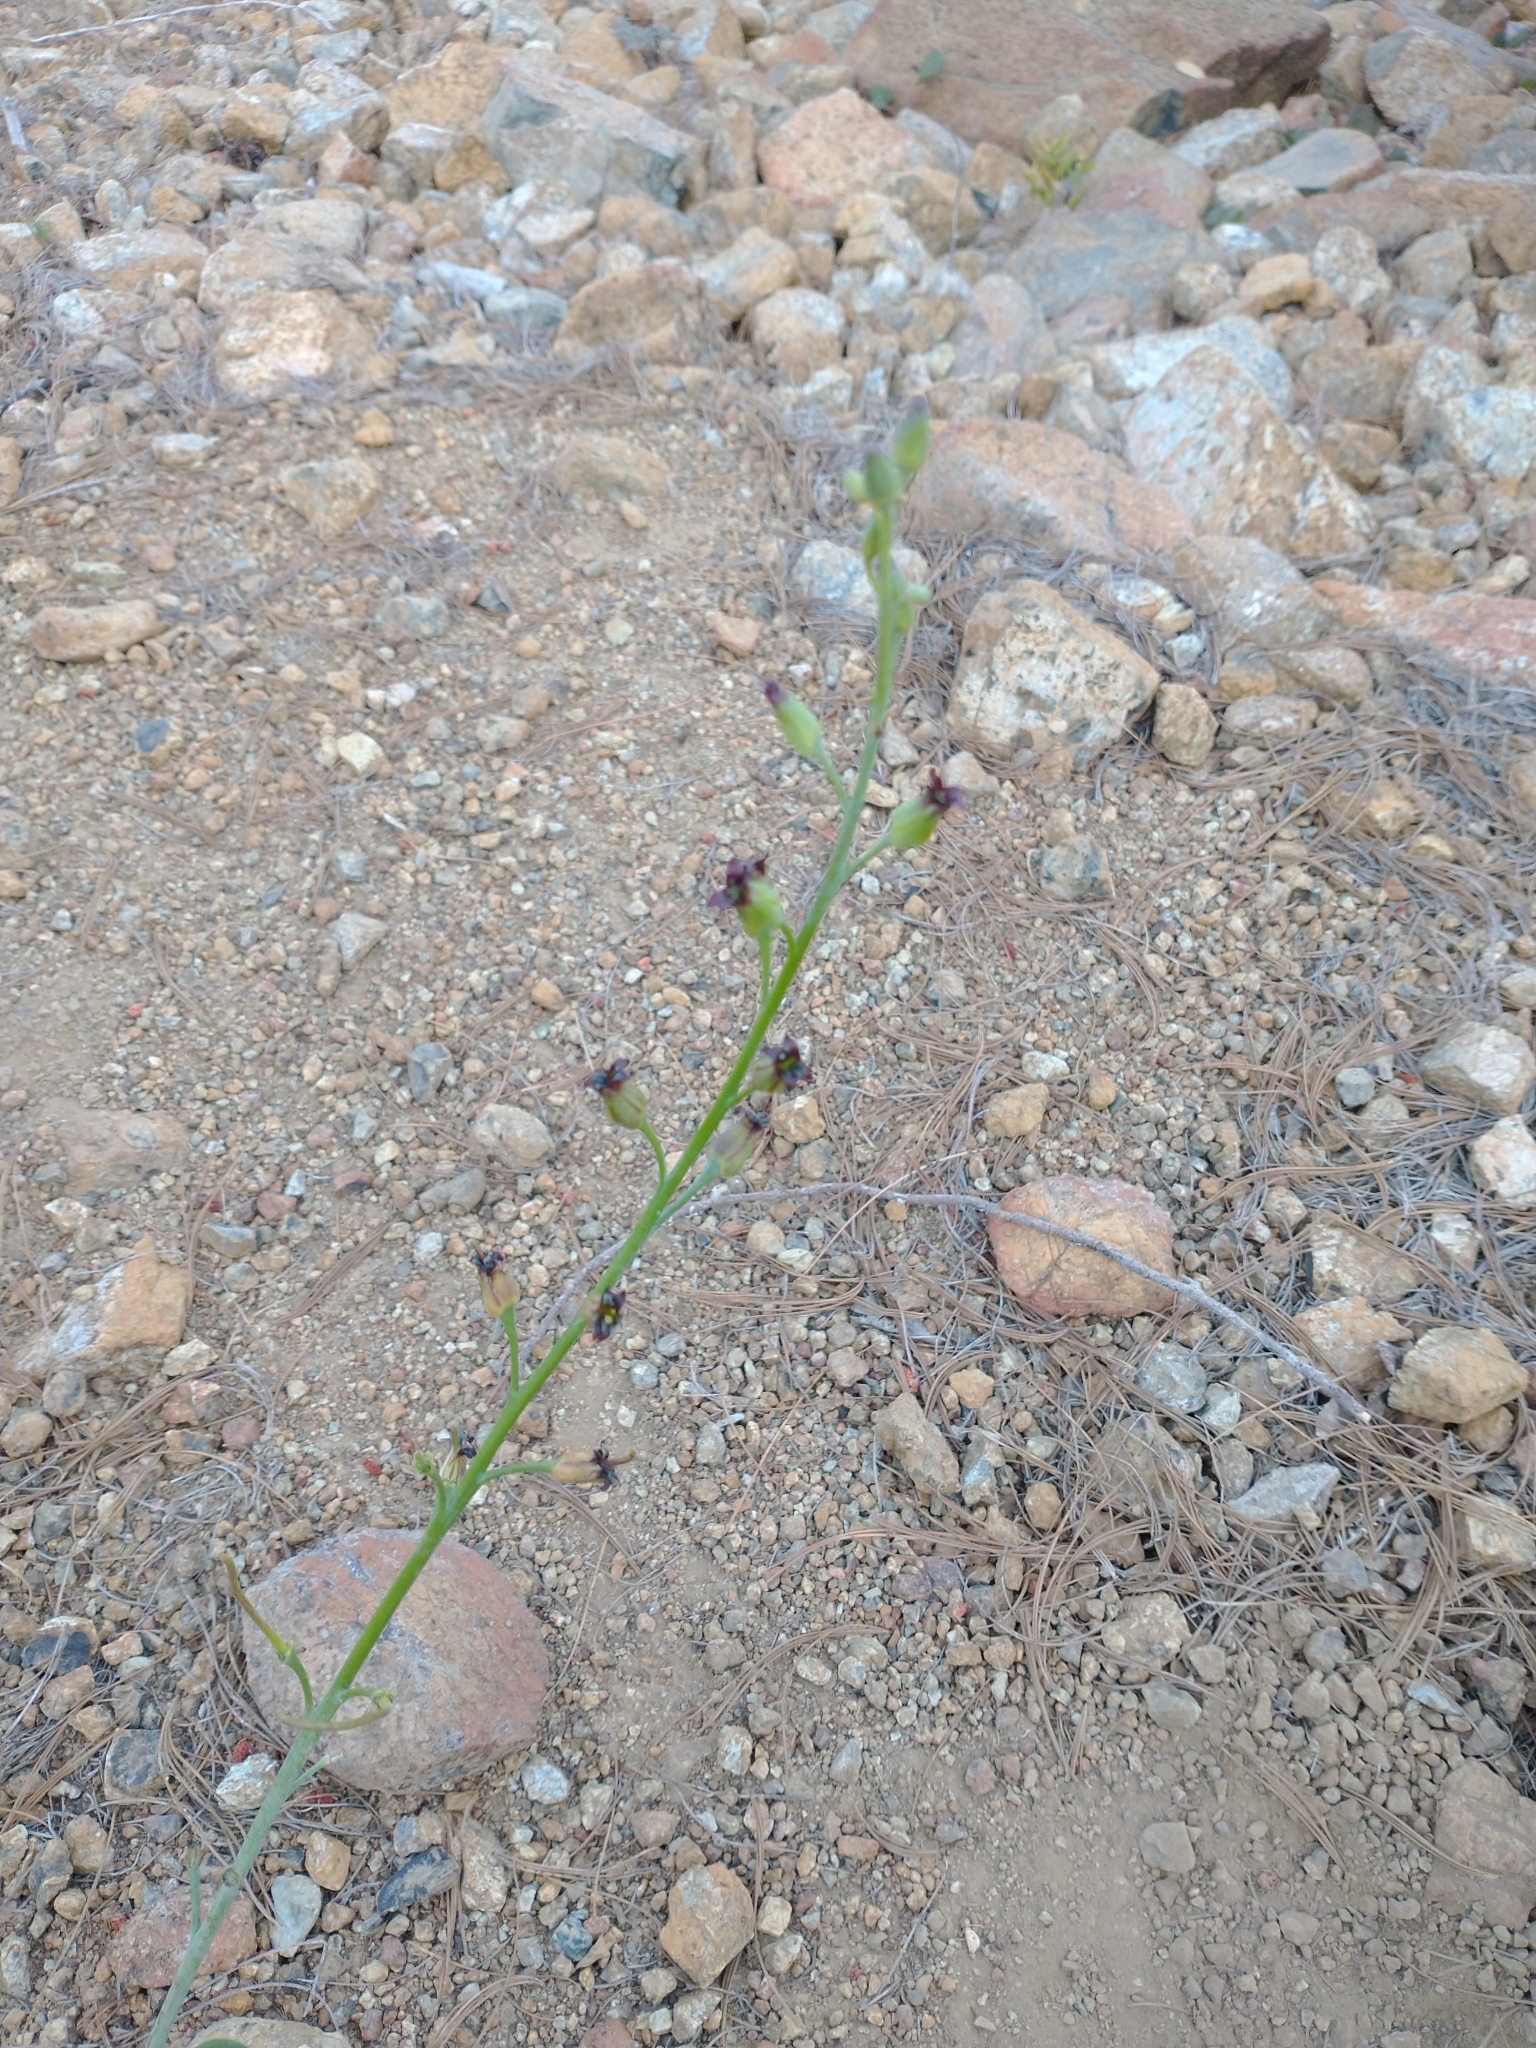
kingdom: Plantae
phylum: Tracheophyta
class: Magnoliopsida
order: Brassicales
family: Brassicaceae
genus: Streptanthus
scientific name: Streptanthus howellii
